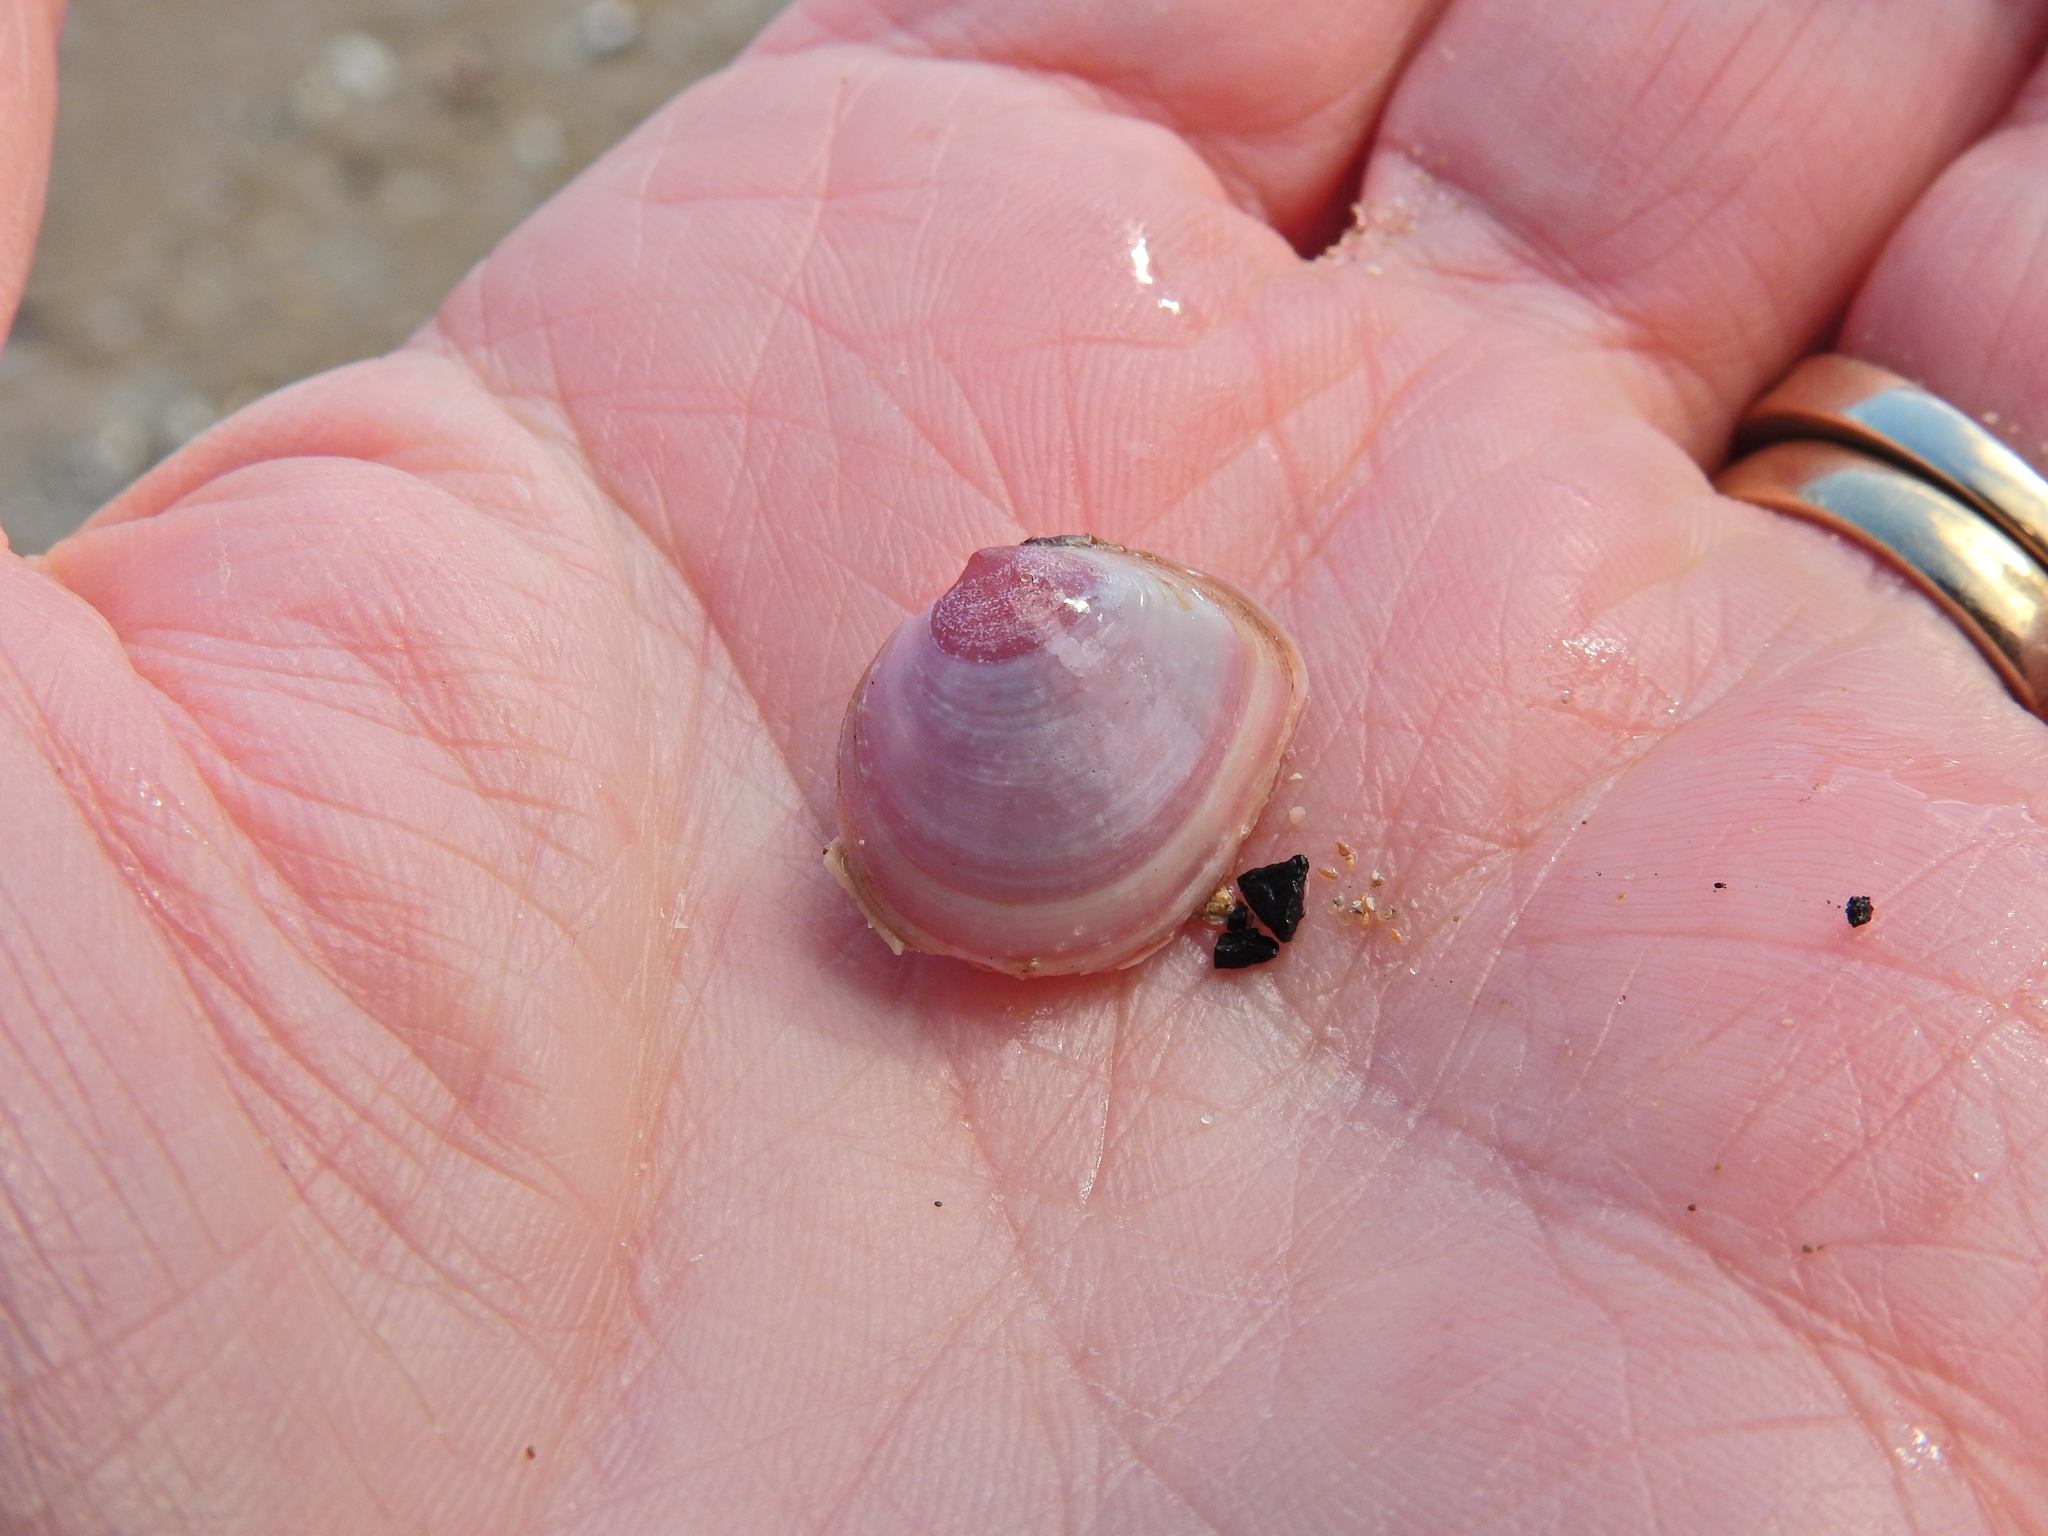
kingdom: Animalia
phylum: Mollusca
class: Bivalvia
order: Cardiida
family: Tellinidae
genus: Macoma
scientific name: Macoma balthica
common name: Baltic tellin
